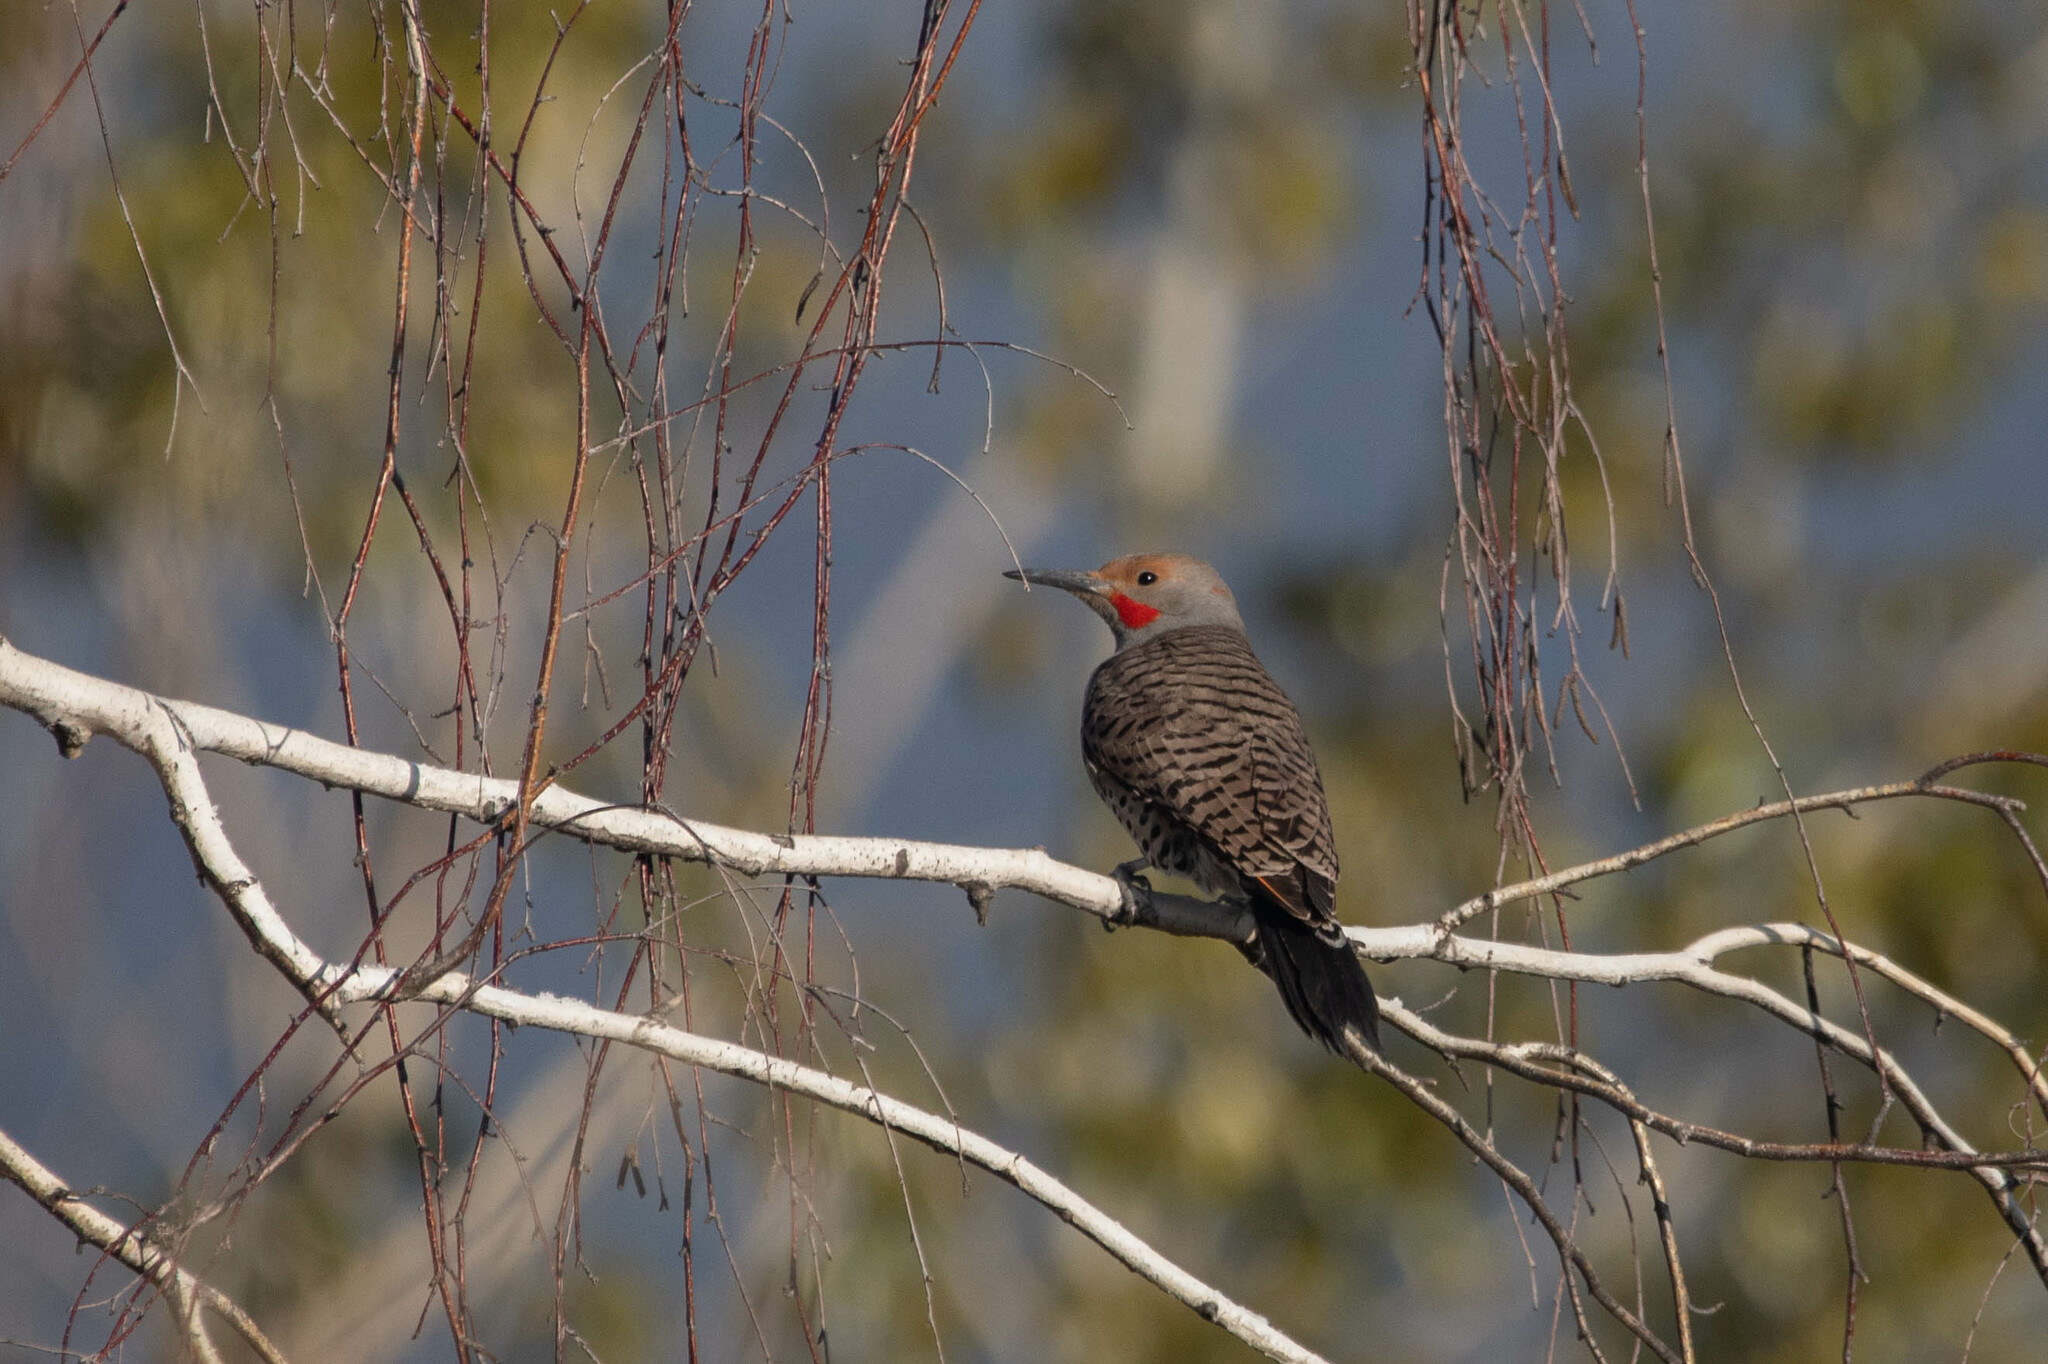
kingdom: Animalia
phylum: Chordata
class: Aves
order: Piciformes
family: Picidae
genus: Colaptes
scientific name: Colaptes auratus
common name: Northern flicker
